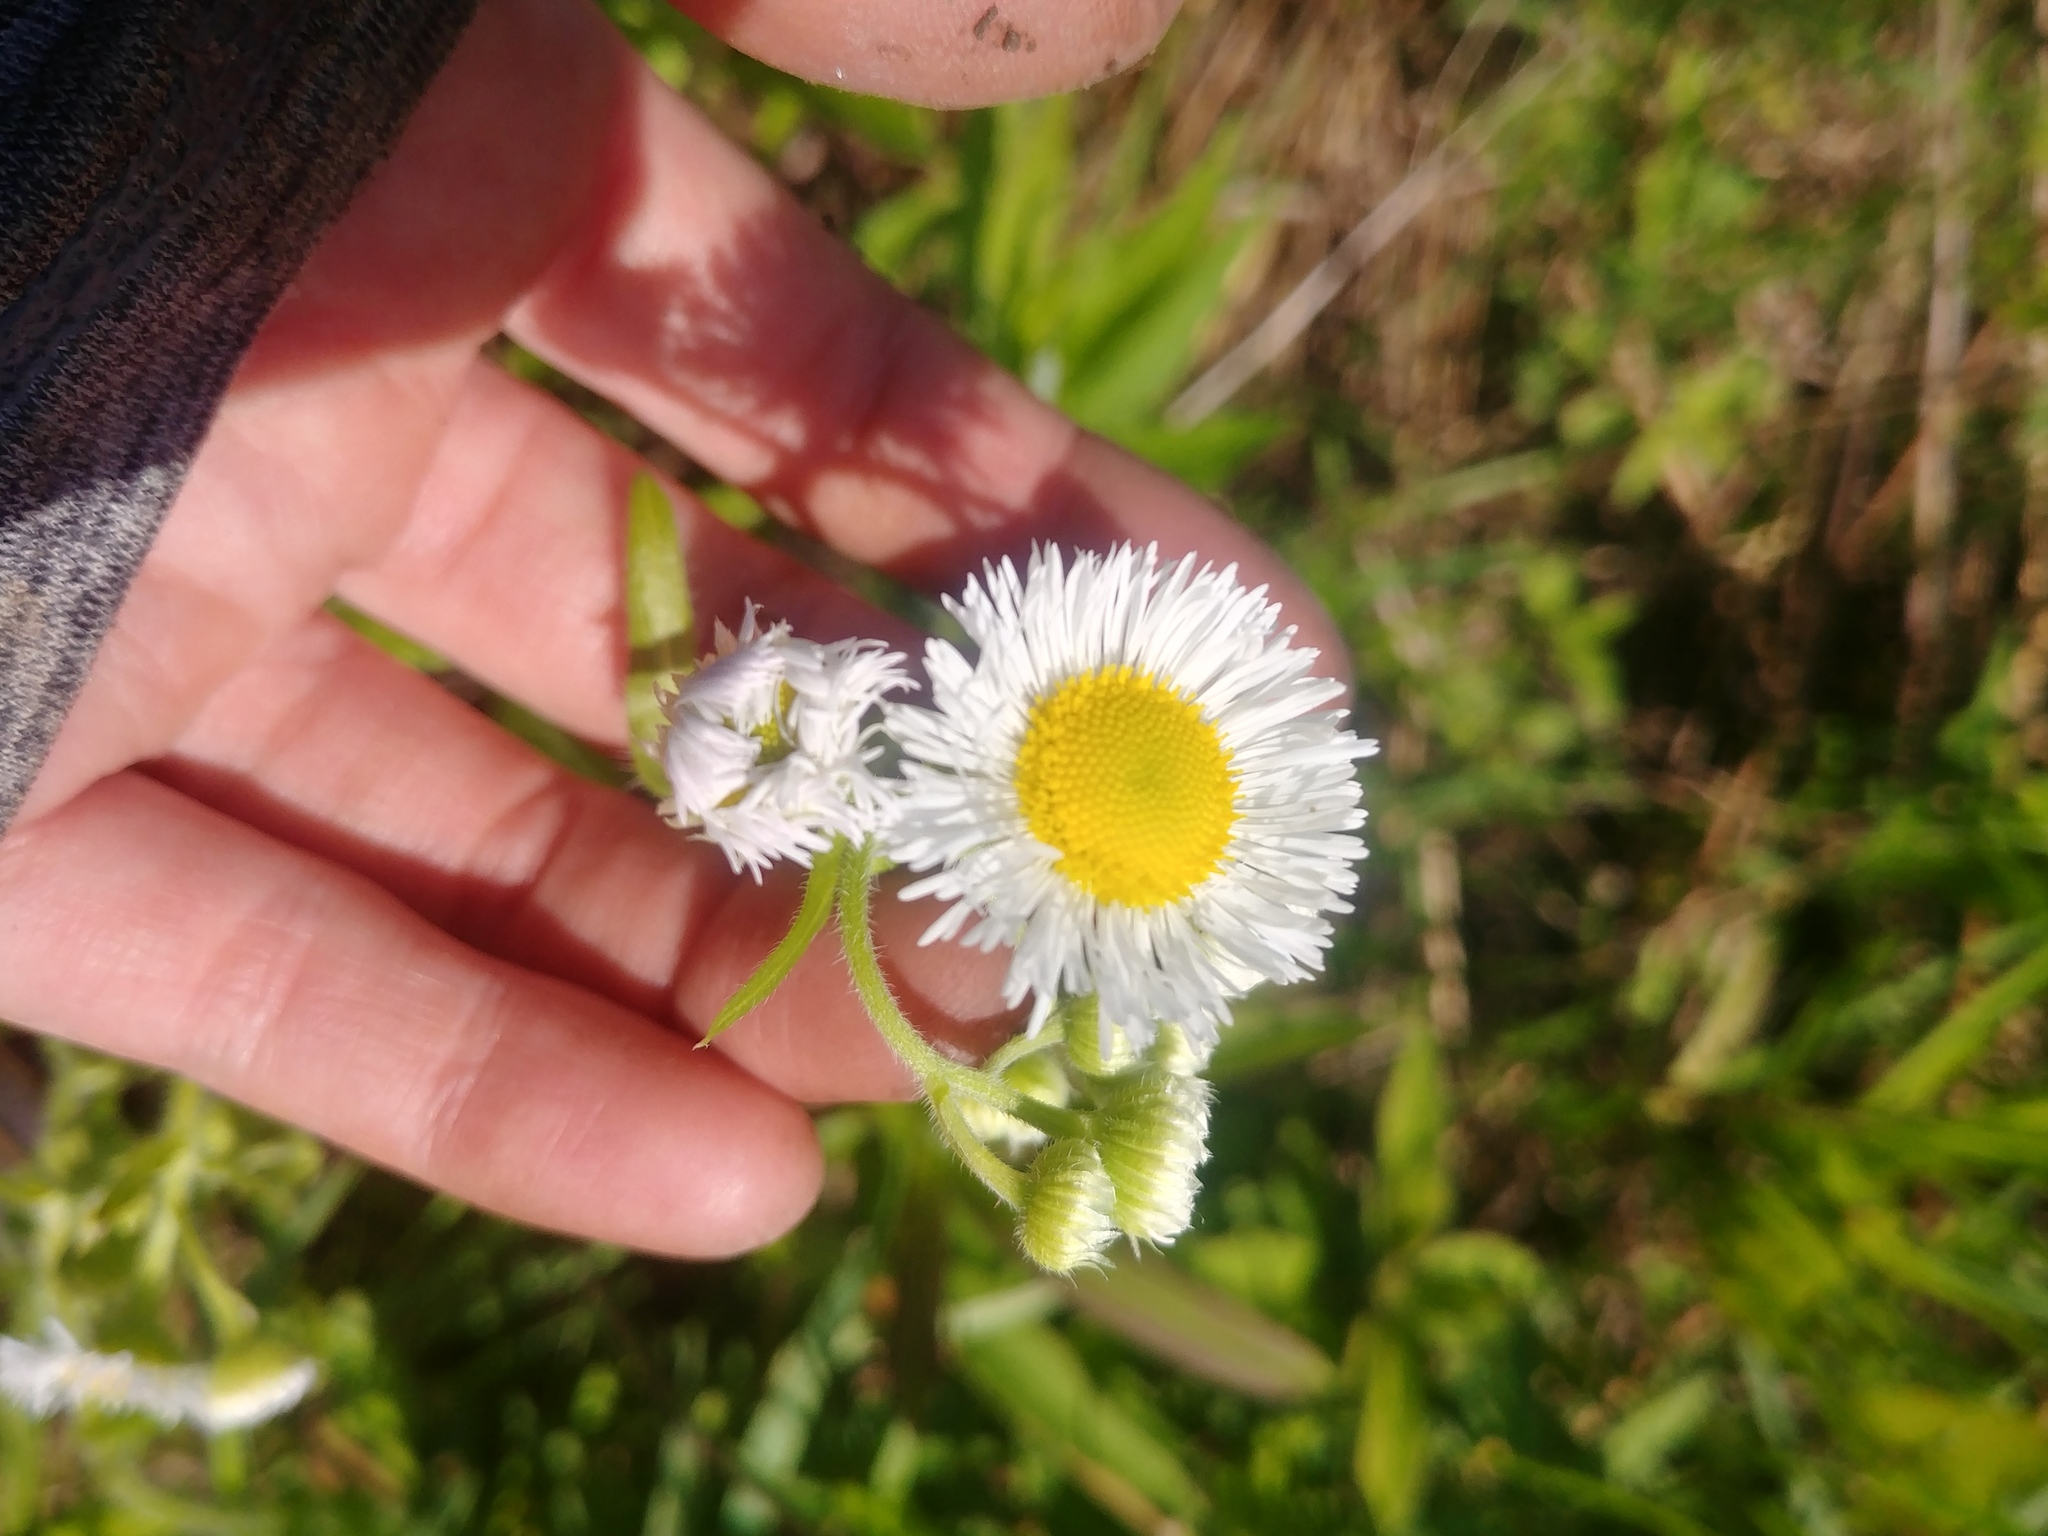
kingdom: Plantae
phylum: Tracheophyta
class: Magnoliopsida
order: Asterales
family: Asteraceae
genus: Erigeron
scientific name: Erigeron philadelphicus
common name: Robin's-plantain
